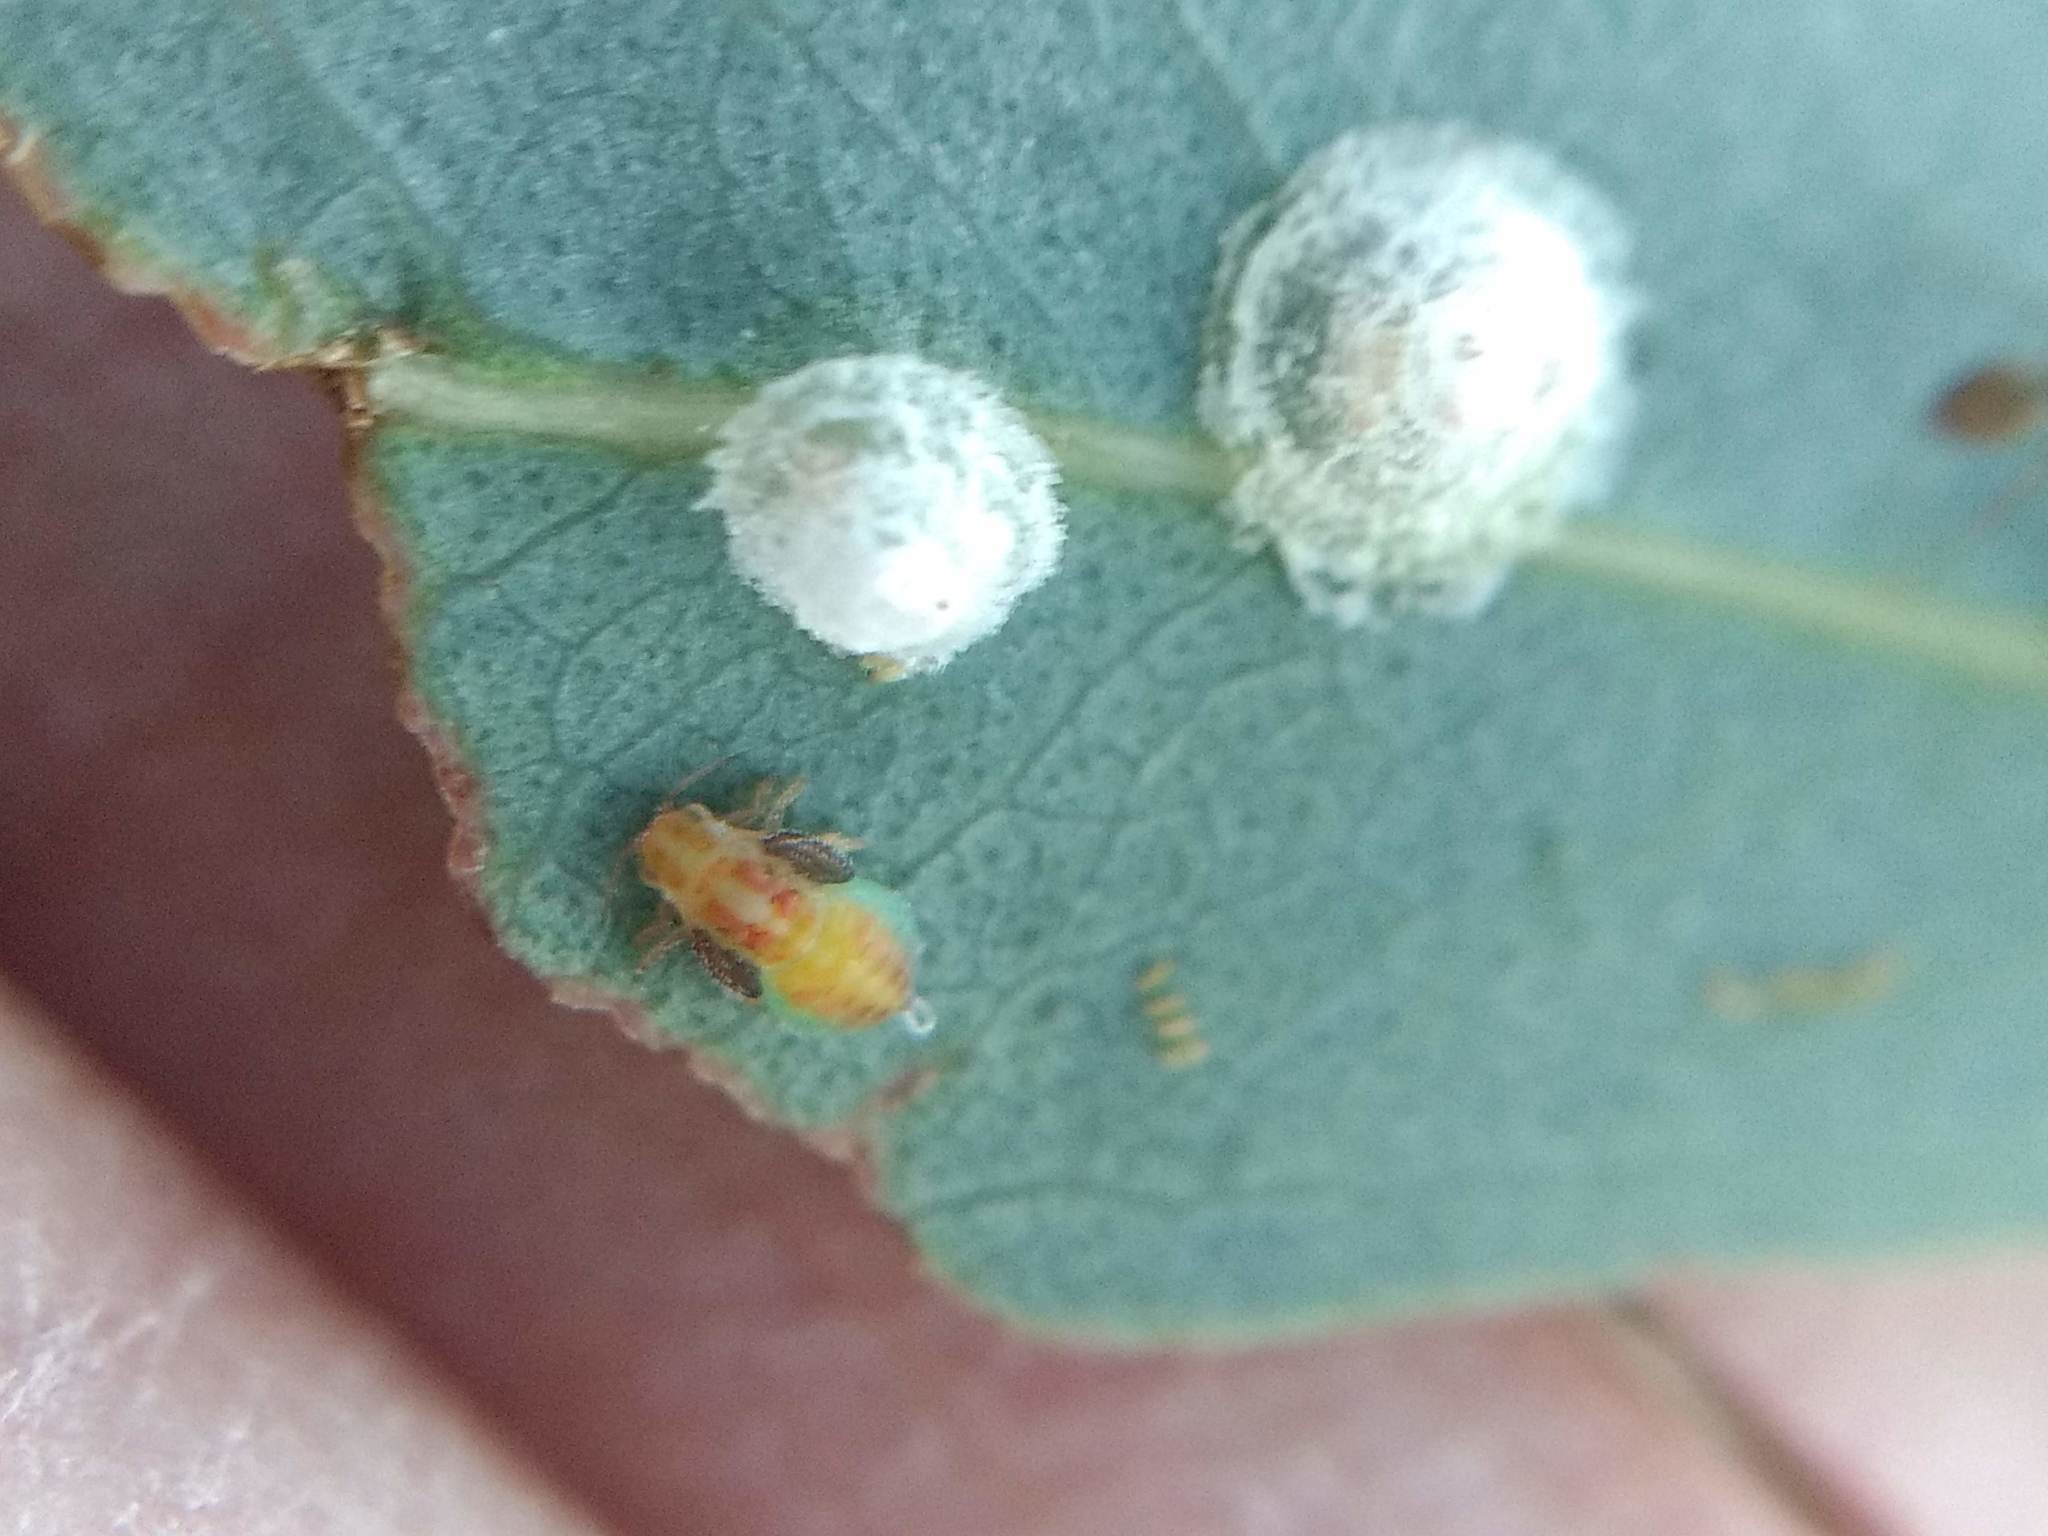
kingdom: Animalia
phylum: Arthropoda
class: Insecta
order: Hemiptera
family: Aphalaridae
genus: Glycaspis
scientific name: Glycaspis brimblecombei
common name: Red gum lerp psyllid
